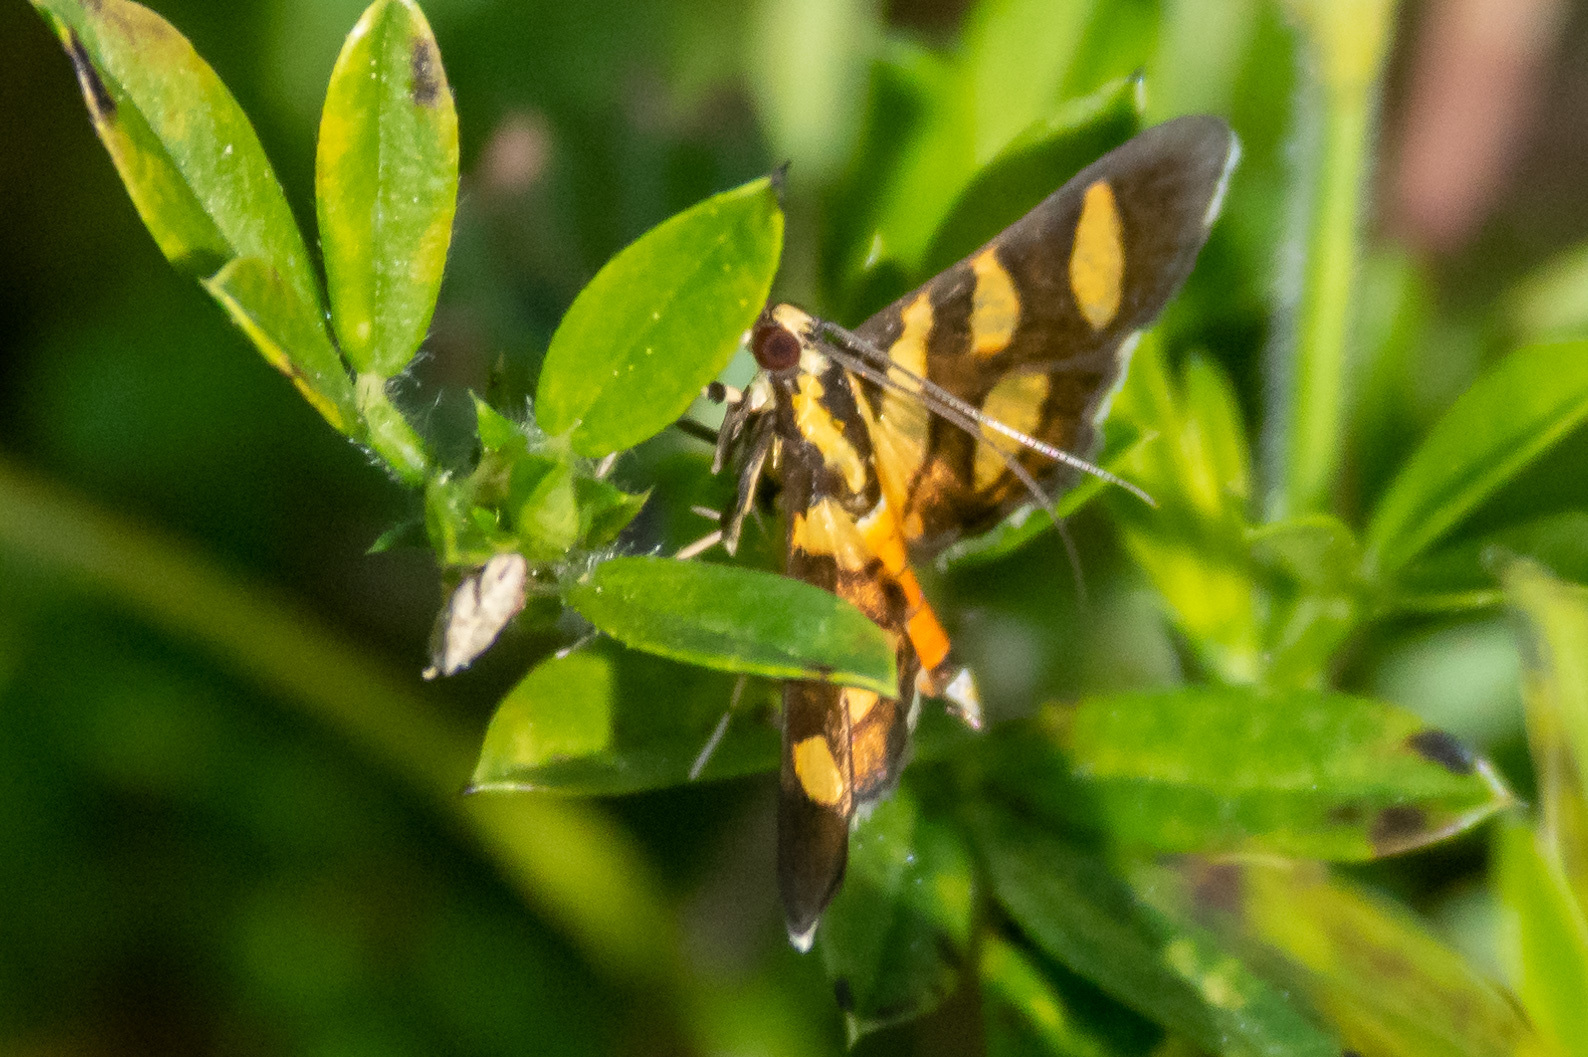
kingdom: Animalia
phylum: Arthropoda
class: Insecta
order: Lepidoptera
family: Crambidae
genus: Syngamia
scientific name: Syngamia florella
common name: Orange-spotted flower moth
